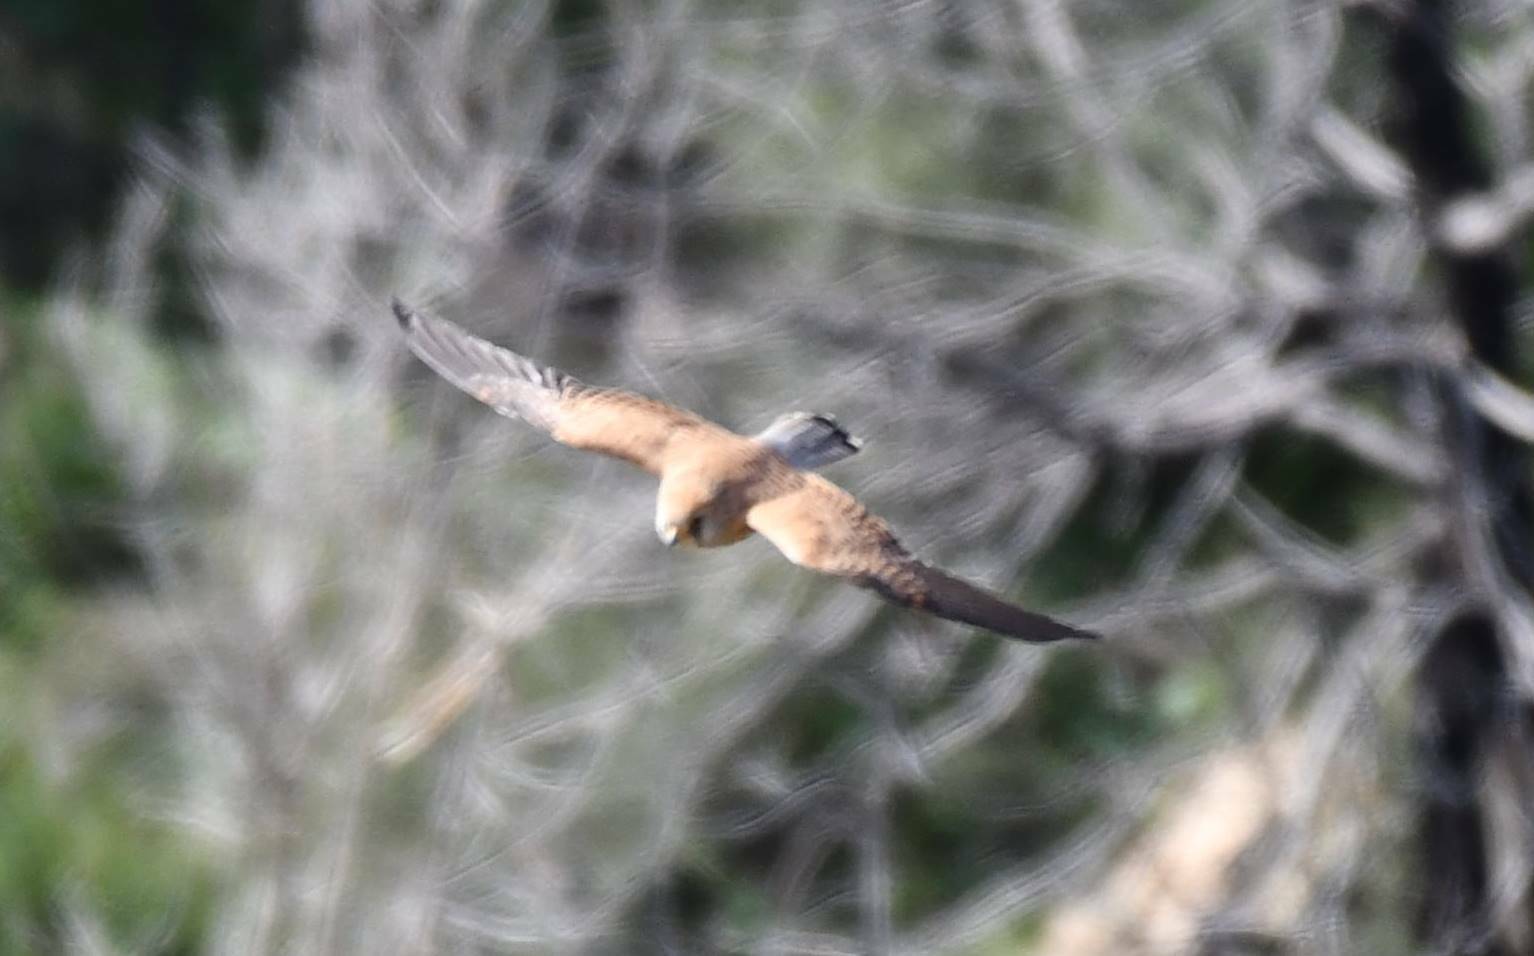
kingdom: Animalia
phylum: Chordata
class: Aves
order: Falconiformes
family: Falconidae
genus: Falco
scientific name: Falco tinnunculus
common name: Common kestrel
